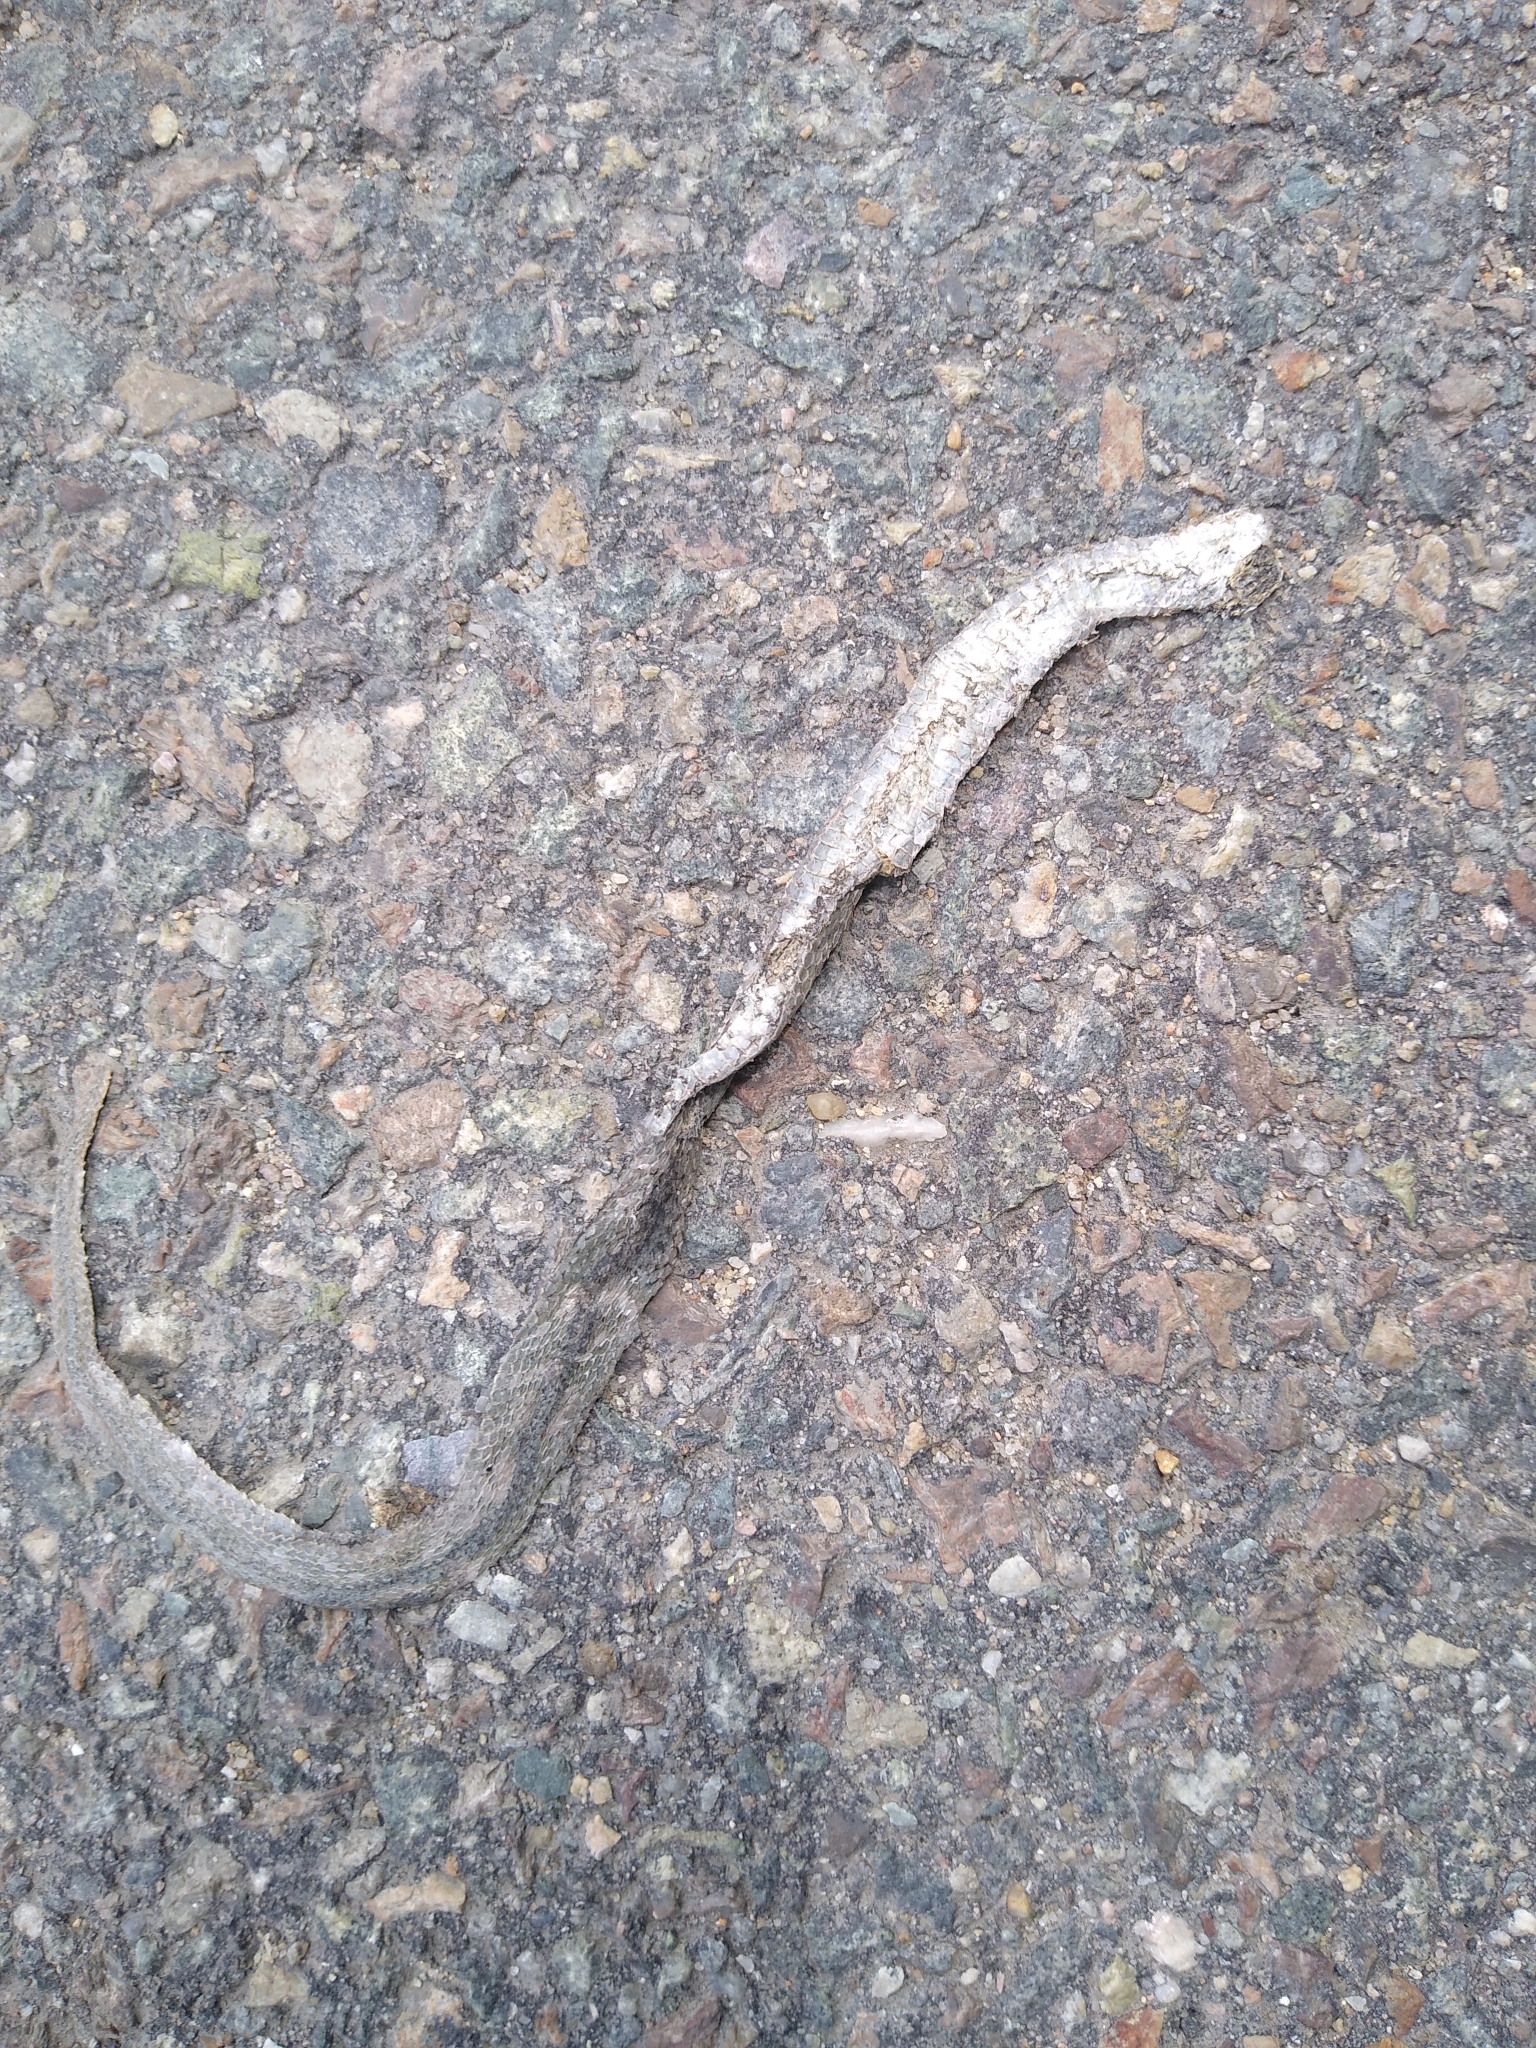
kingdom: Animalia
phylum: Chordata
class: Squamata
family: Colubridae
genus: Storeria
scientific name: Storeria dekayi
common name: (dekay’s) brown snake
